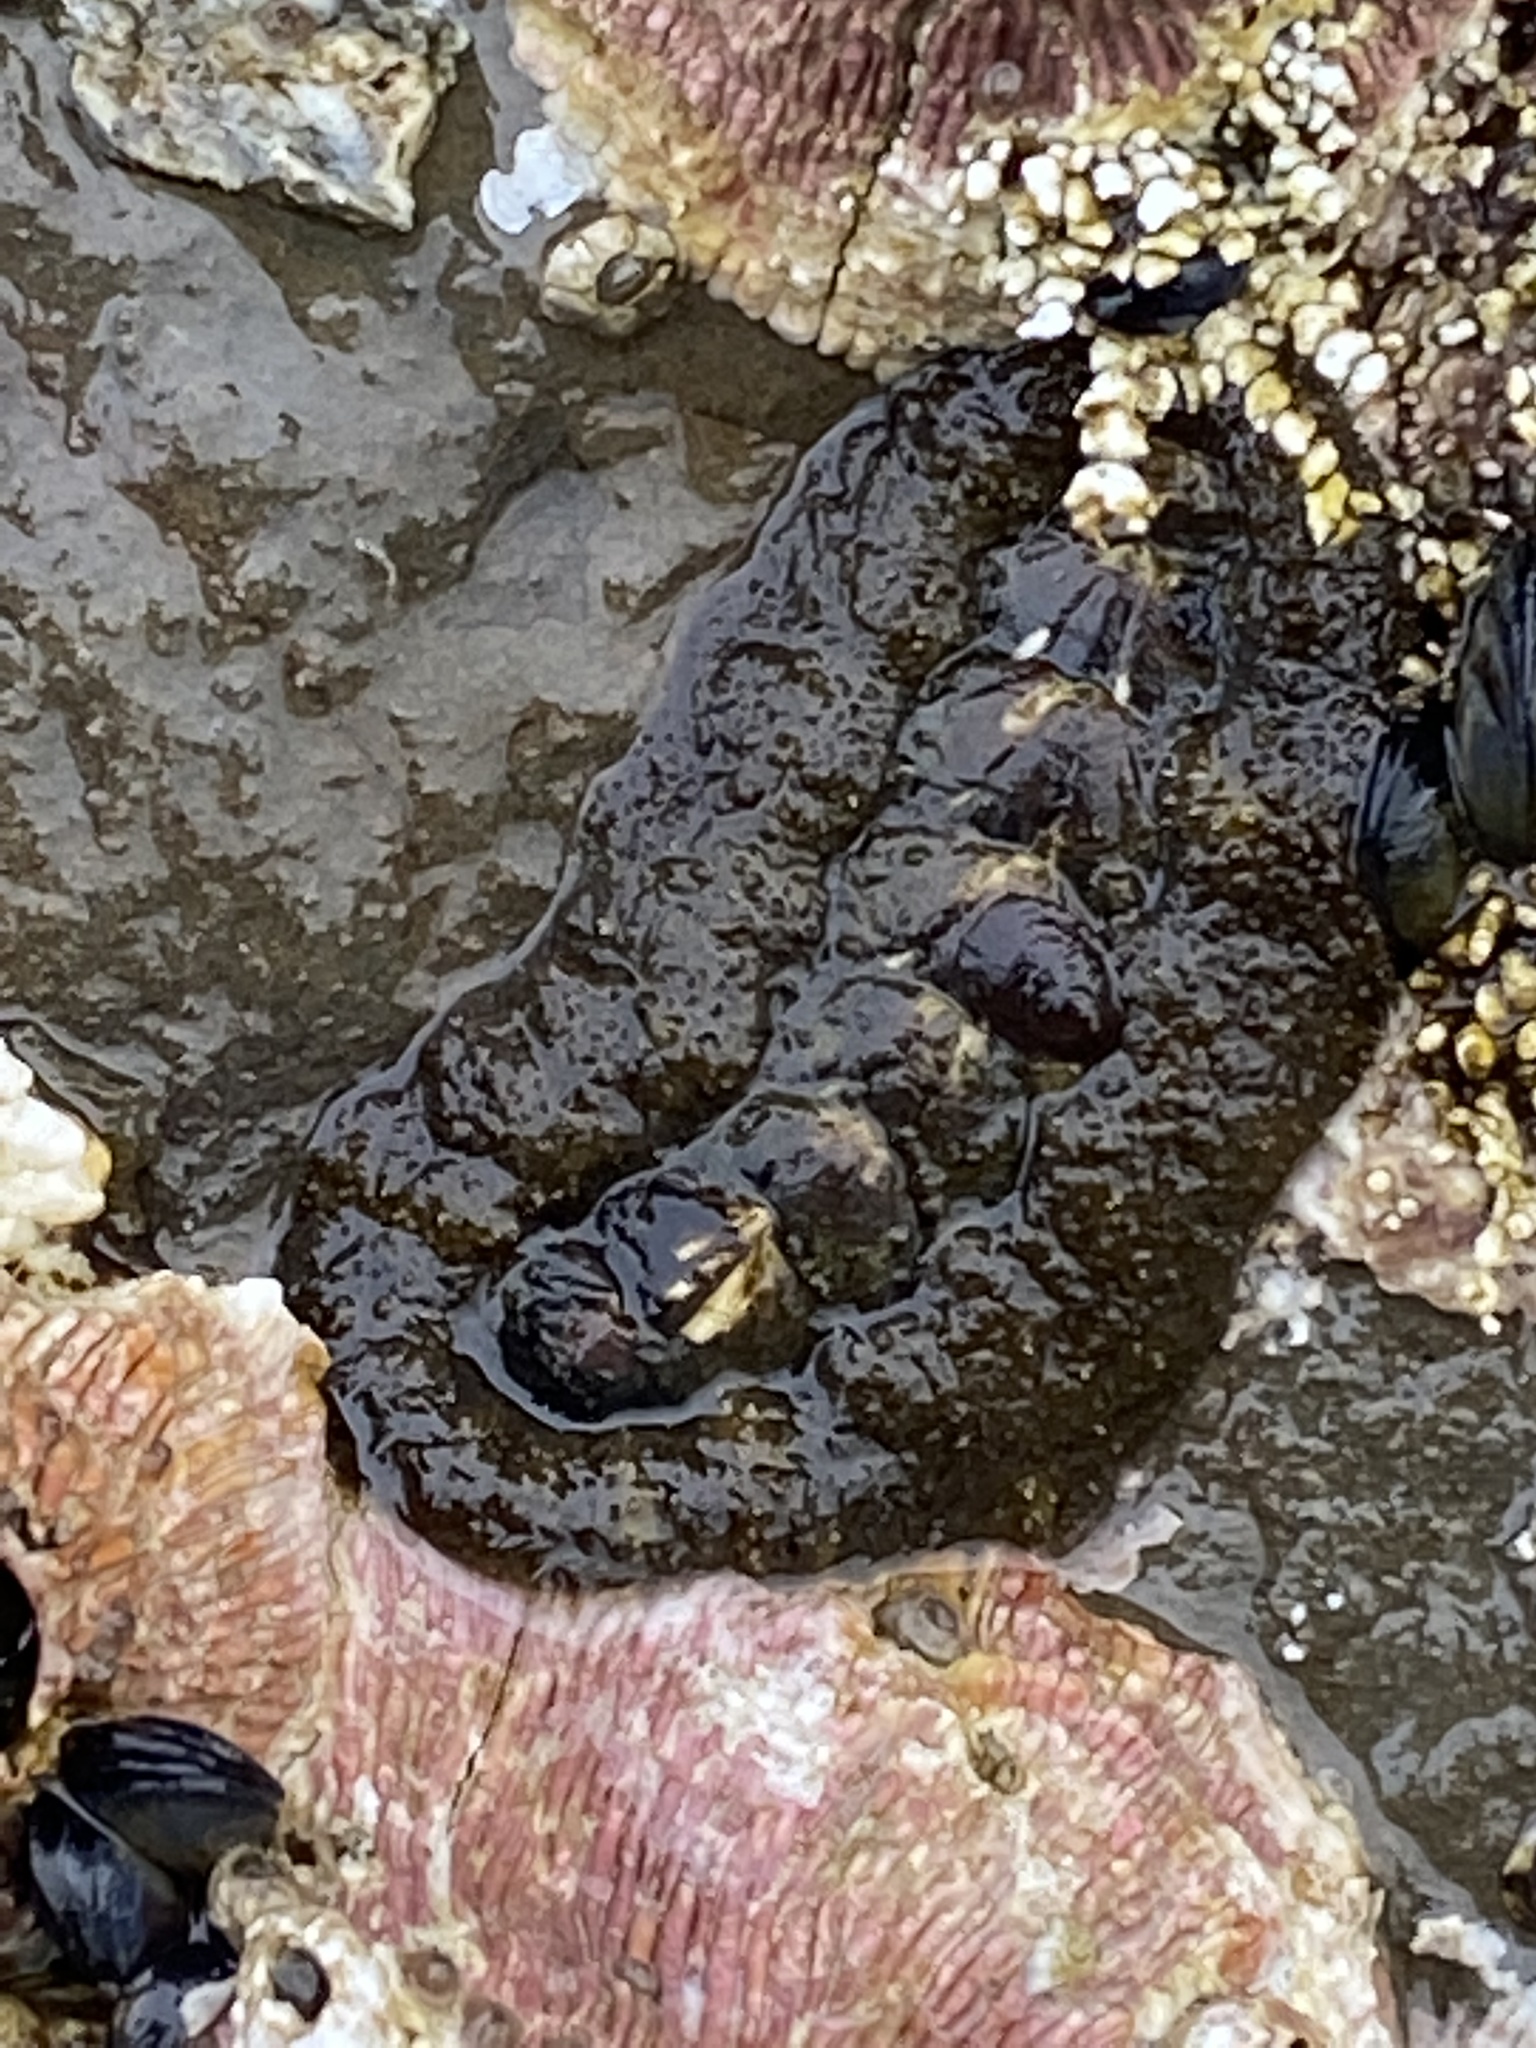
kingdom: Animalia
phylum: Mollusca
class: Polyplacophora
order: Chitonida
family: Tonicellidae
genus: Nuttallina
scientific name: Nuttallina californica
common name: California nuttall chiton
